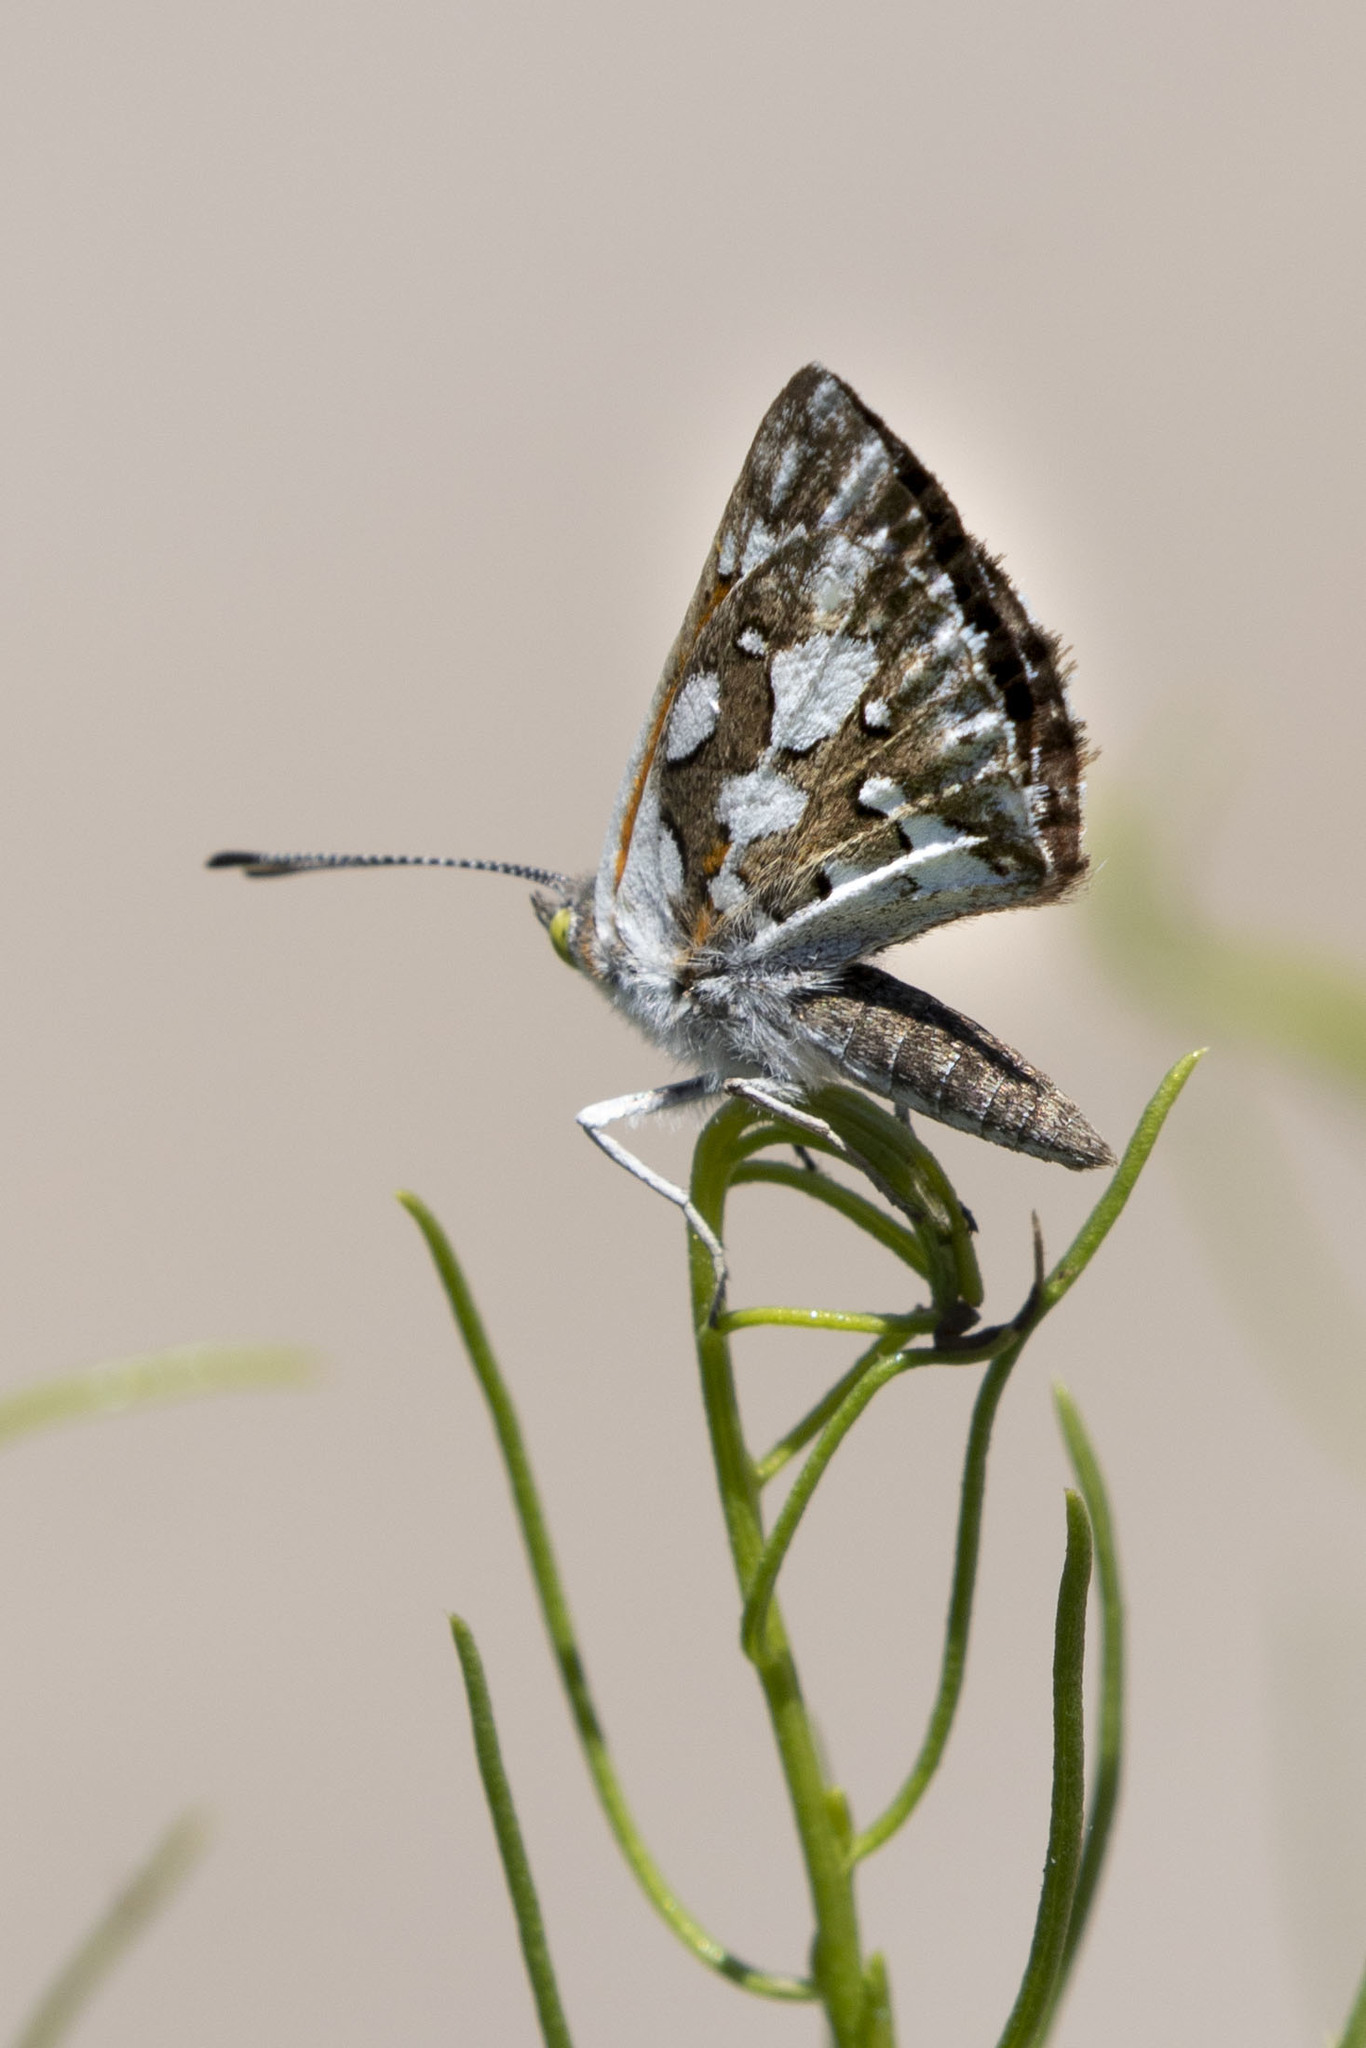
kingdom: Animalia
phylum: Arthropoda
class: Insecta
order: Lepidoptera
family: Riodinidae
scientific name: Riodinidae
